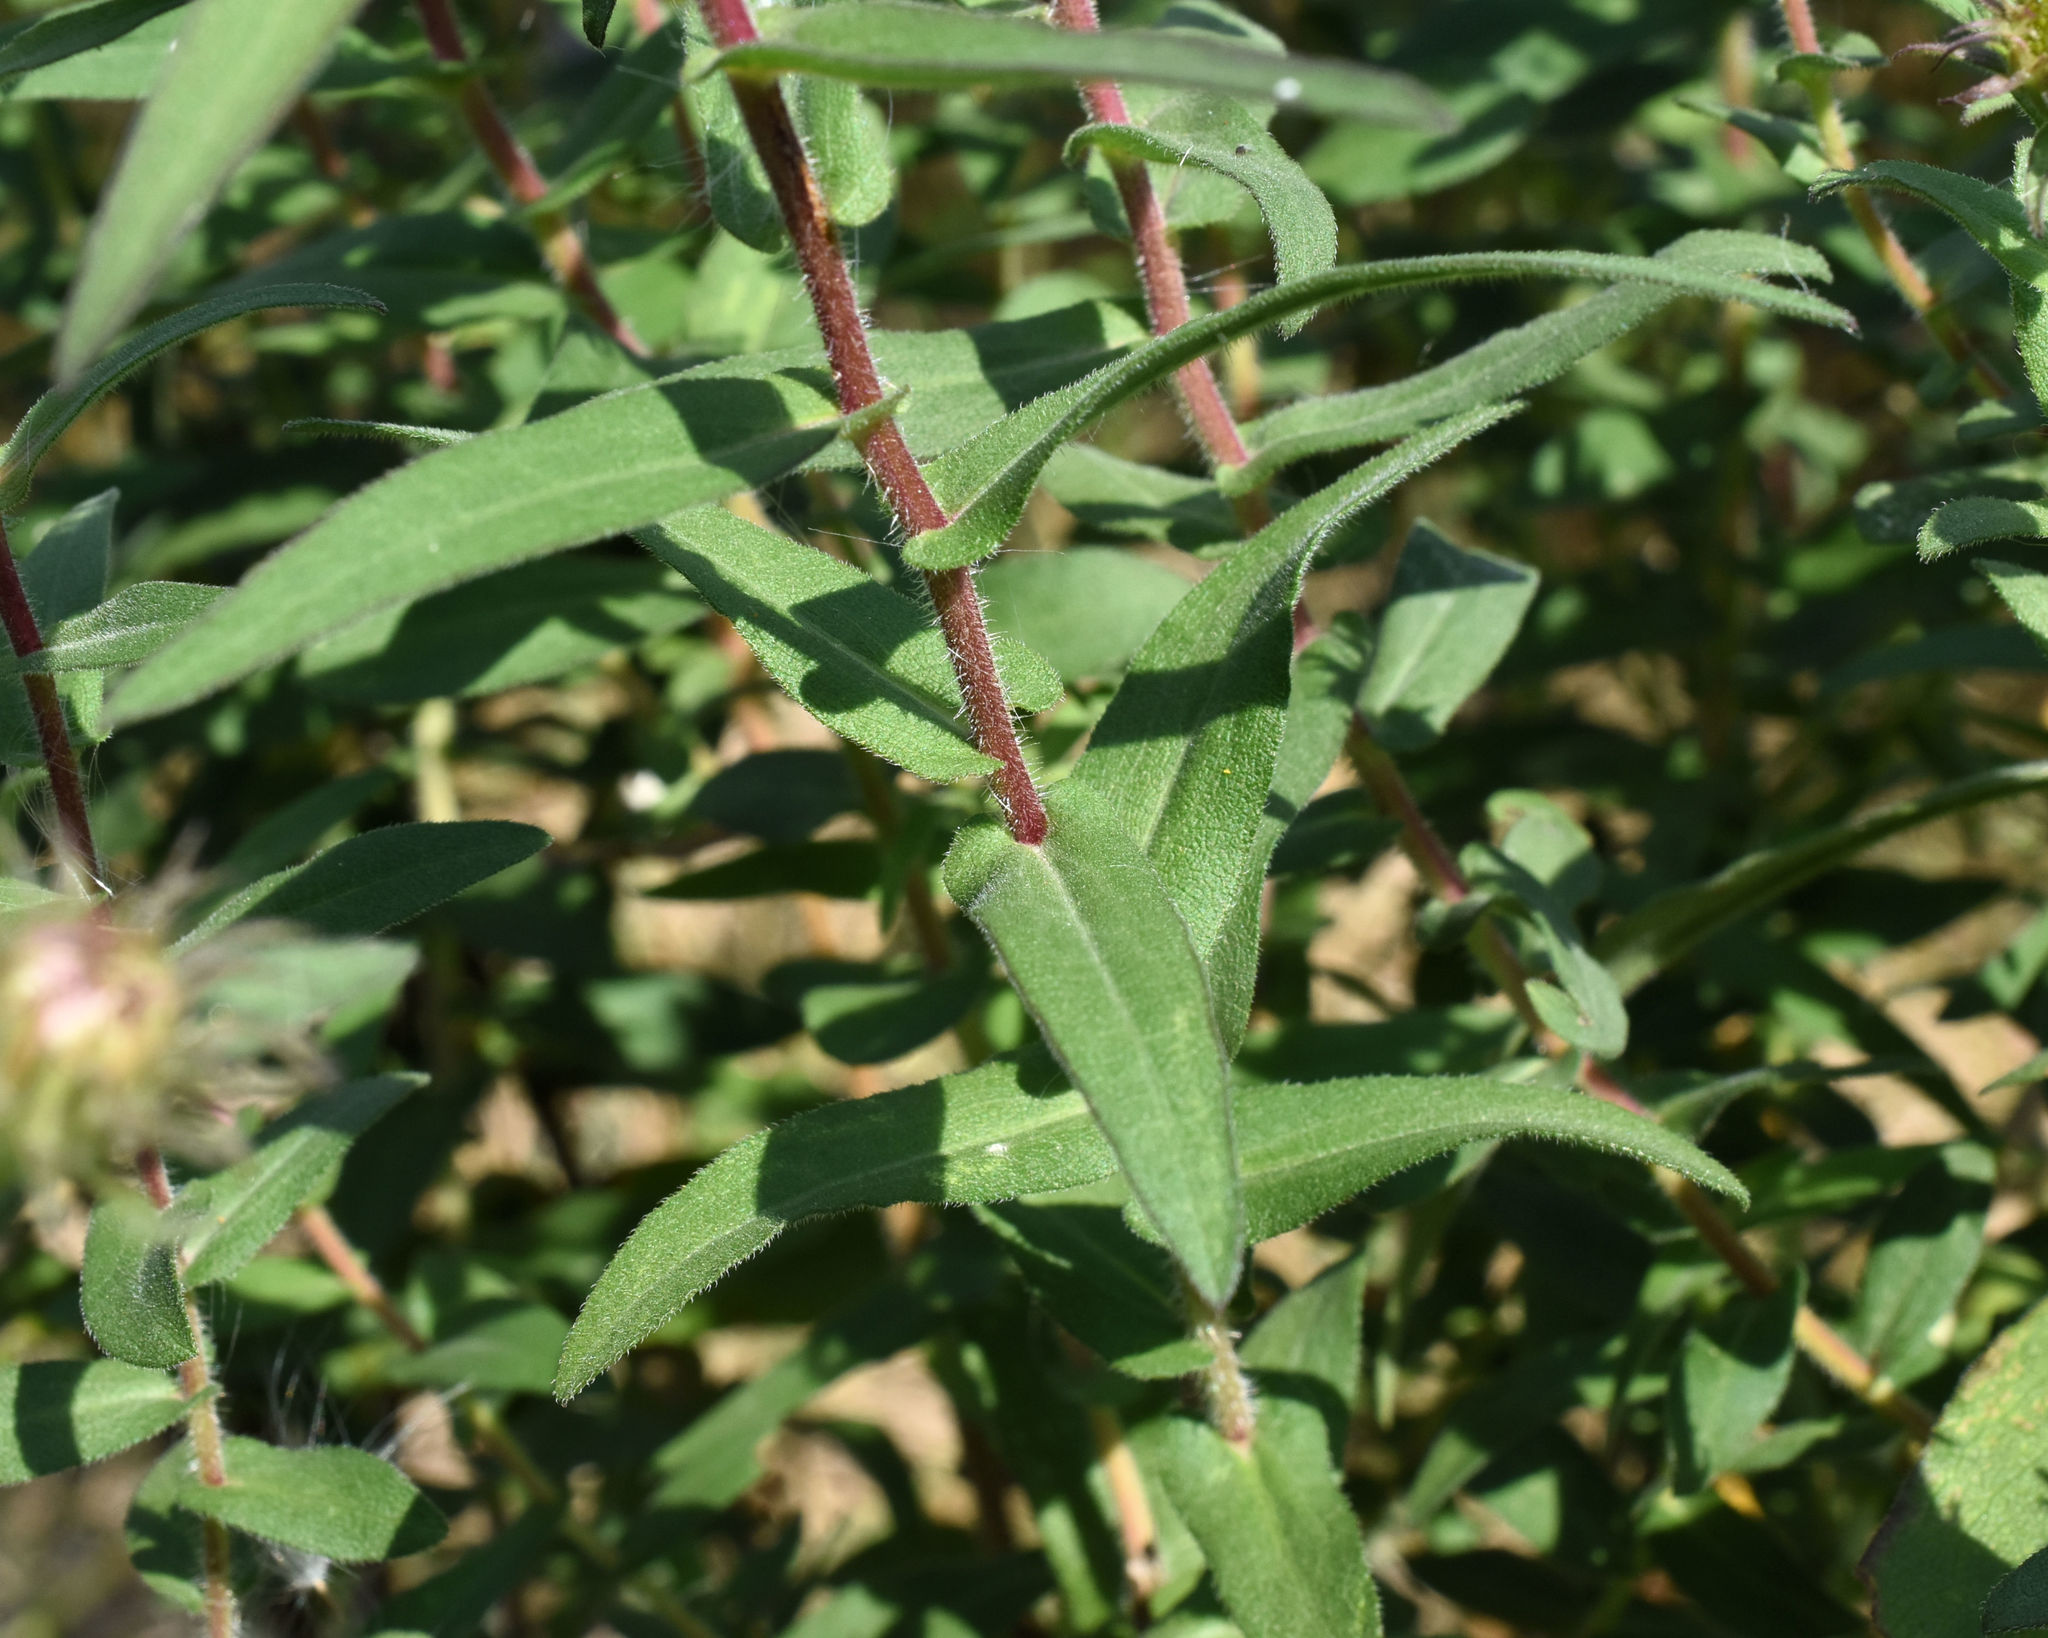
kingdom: Plantae
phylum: Tracheophyta
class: Magnoliopsida
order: Asterales
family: Asteraceae
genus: Symphyotrichum
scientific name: Symphyotrichum novae-angliae
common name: Michaelmas daisy
